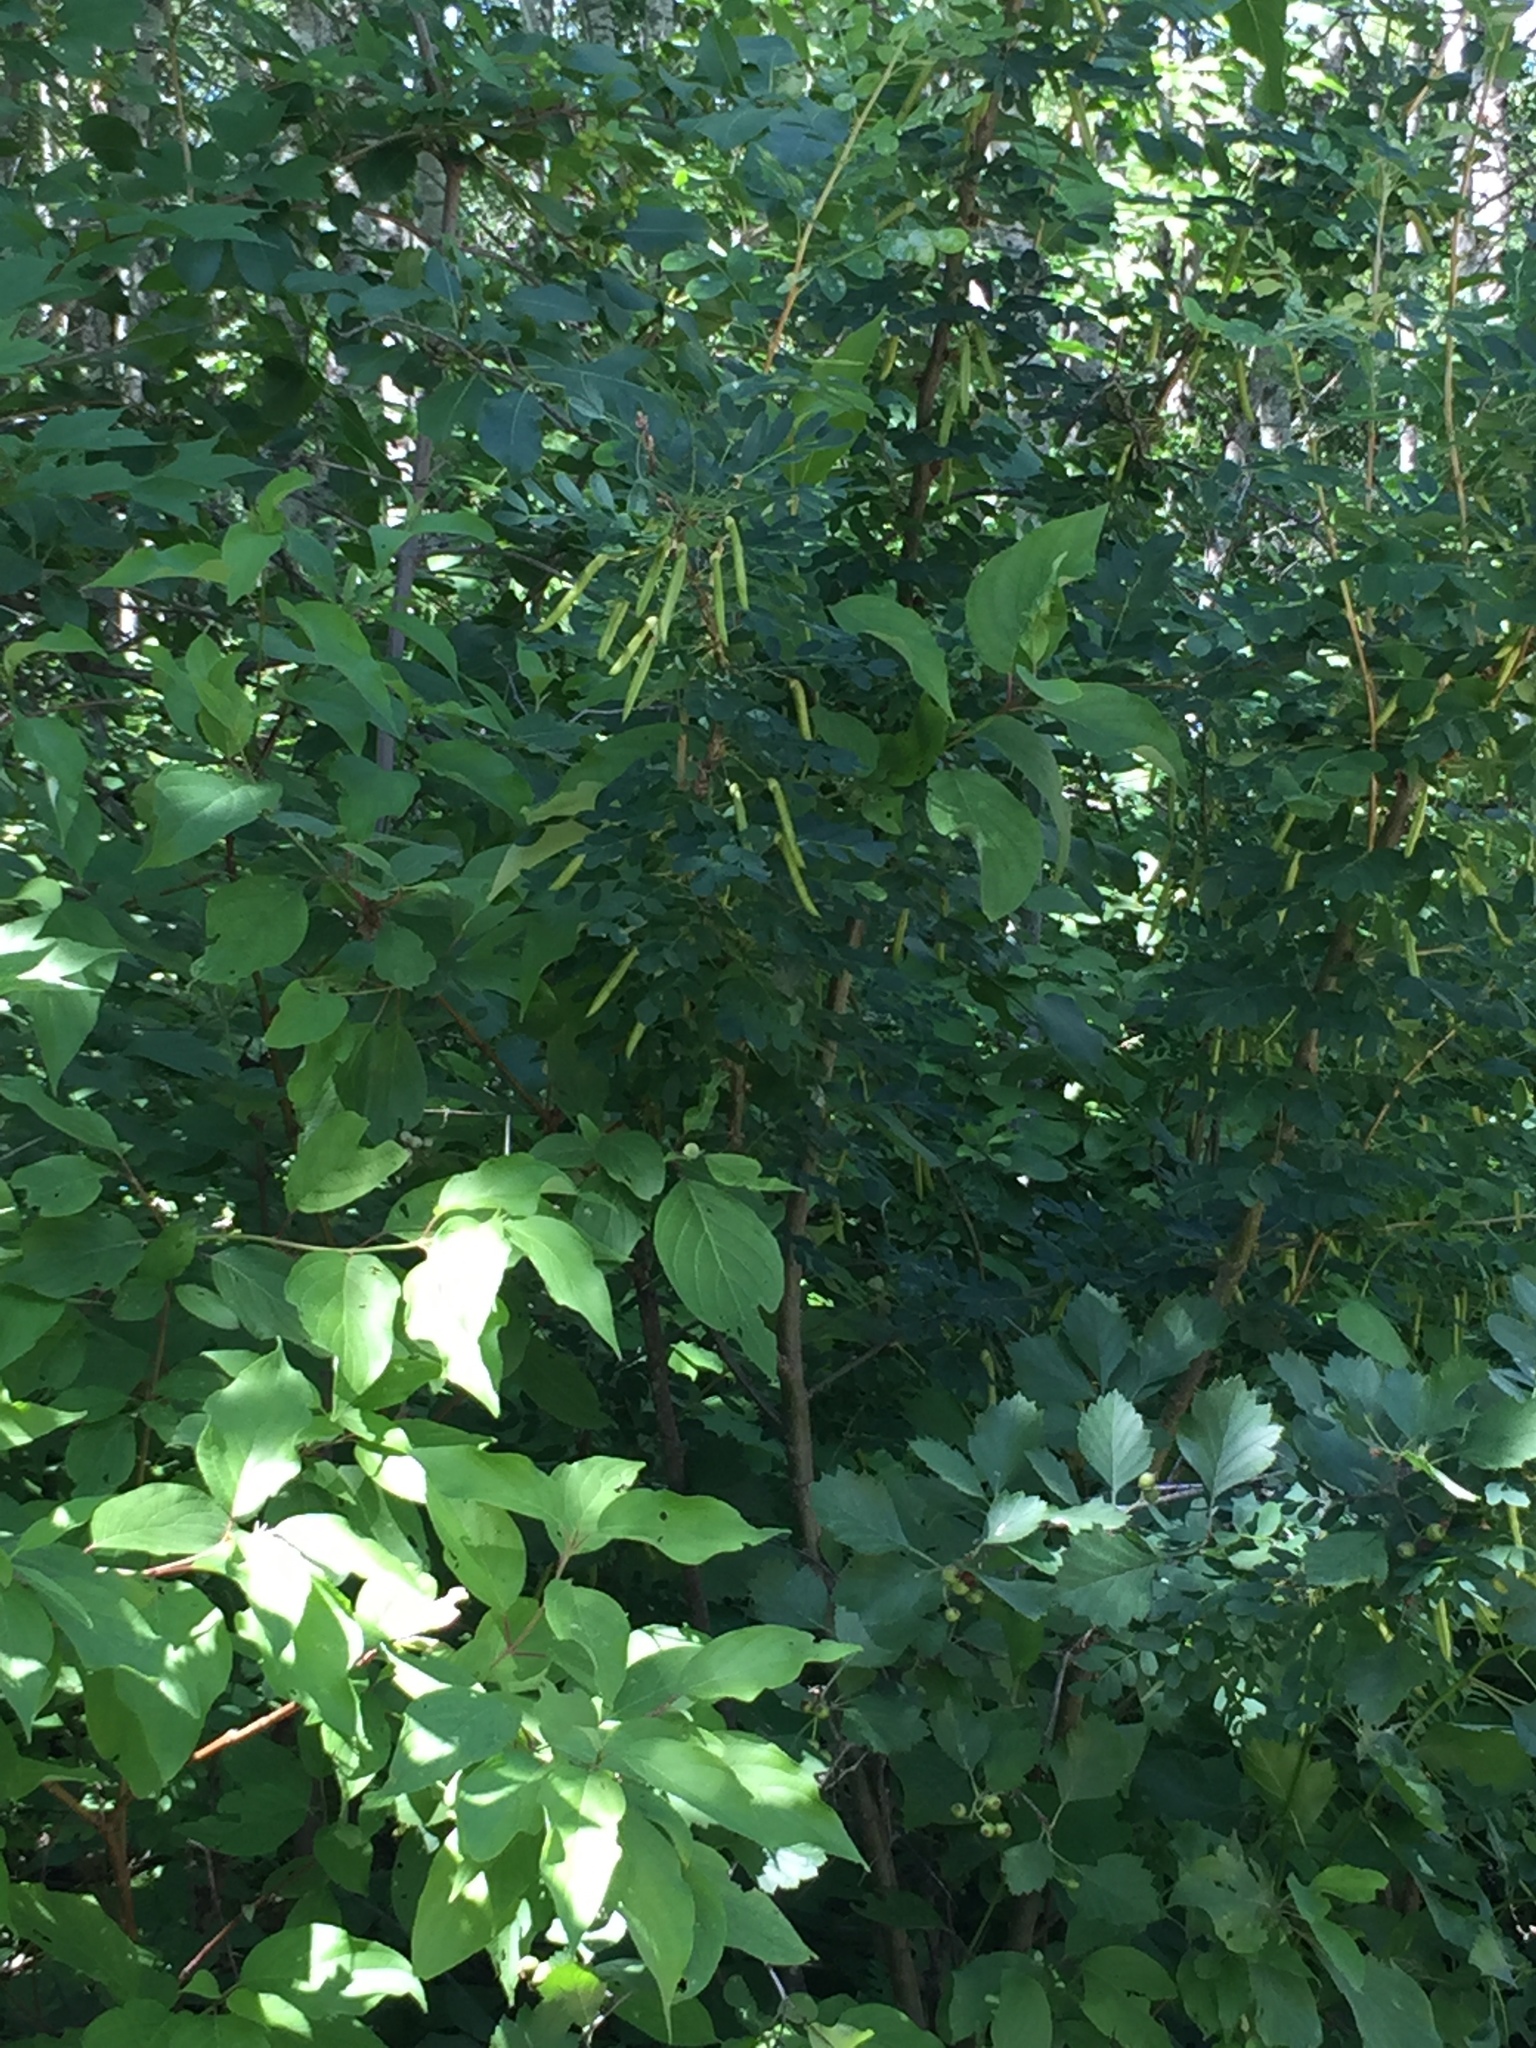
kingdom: Plantae
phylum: Tracheophyta
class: Magnoliopsida
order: Fabales
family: Fabaceae
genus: Caragana
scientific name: Caragana arborescens
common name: Siberian peashrub
